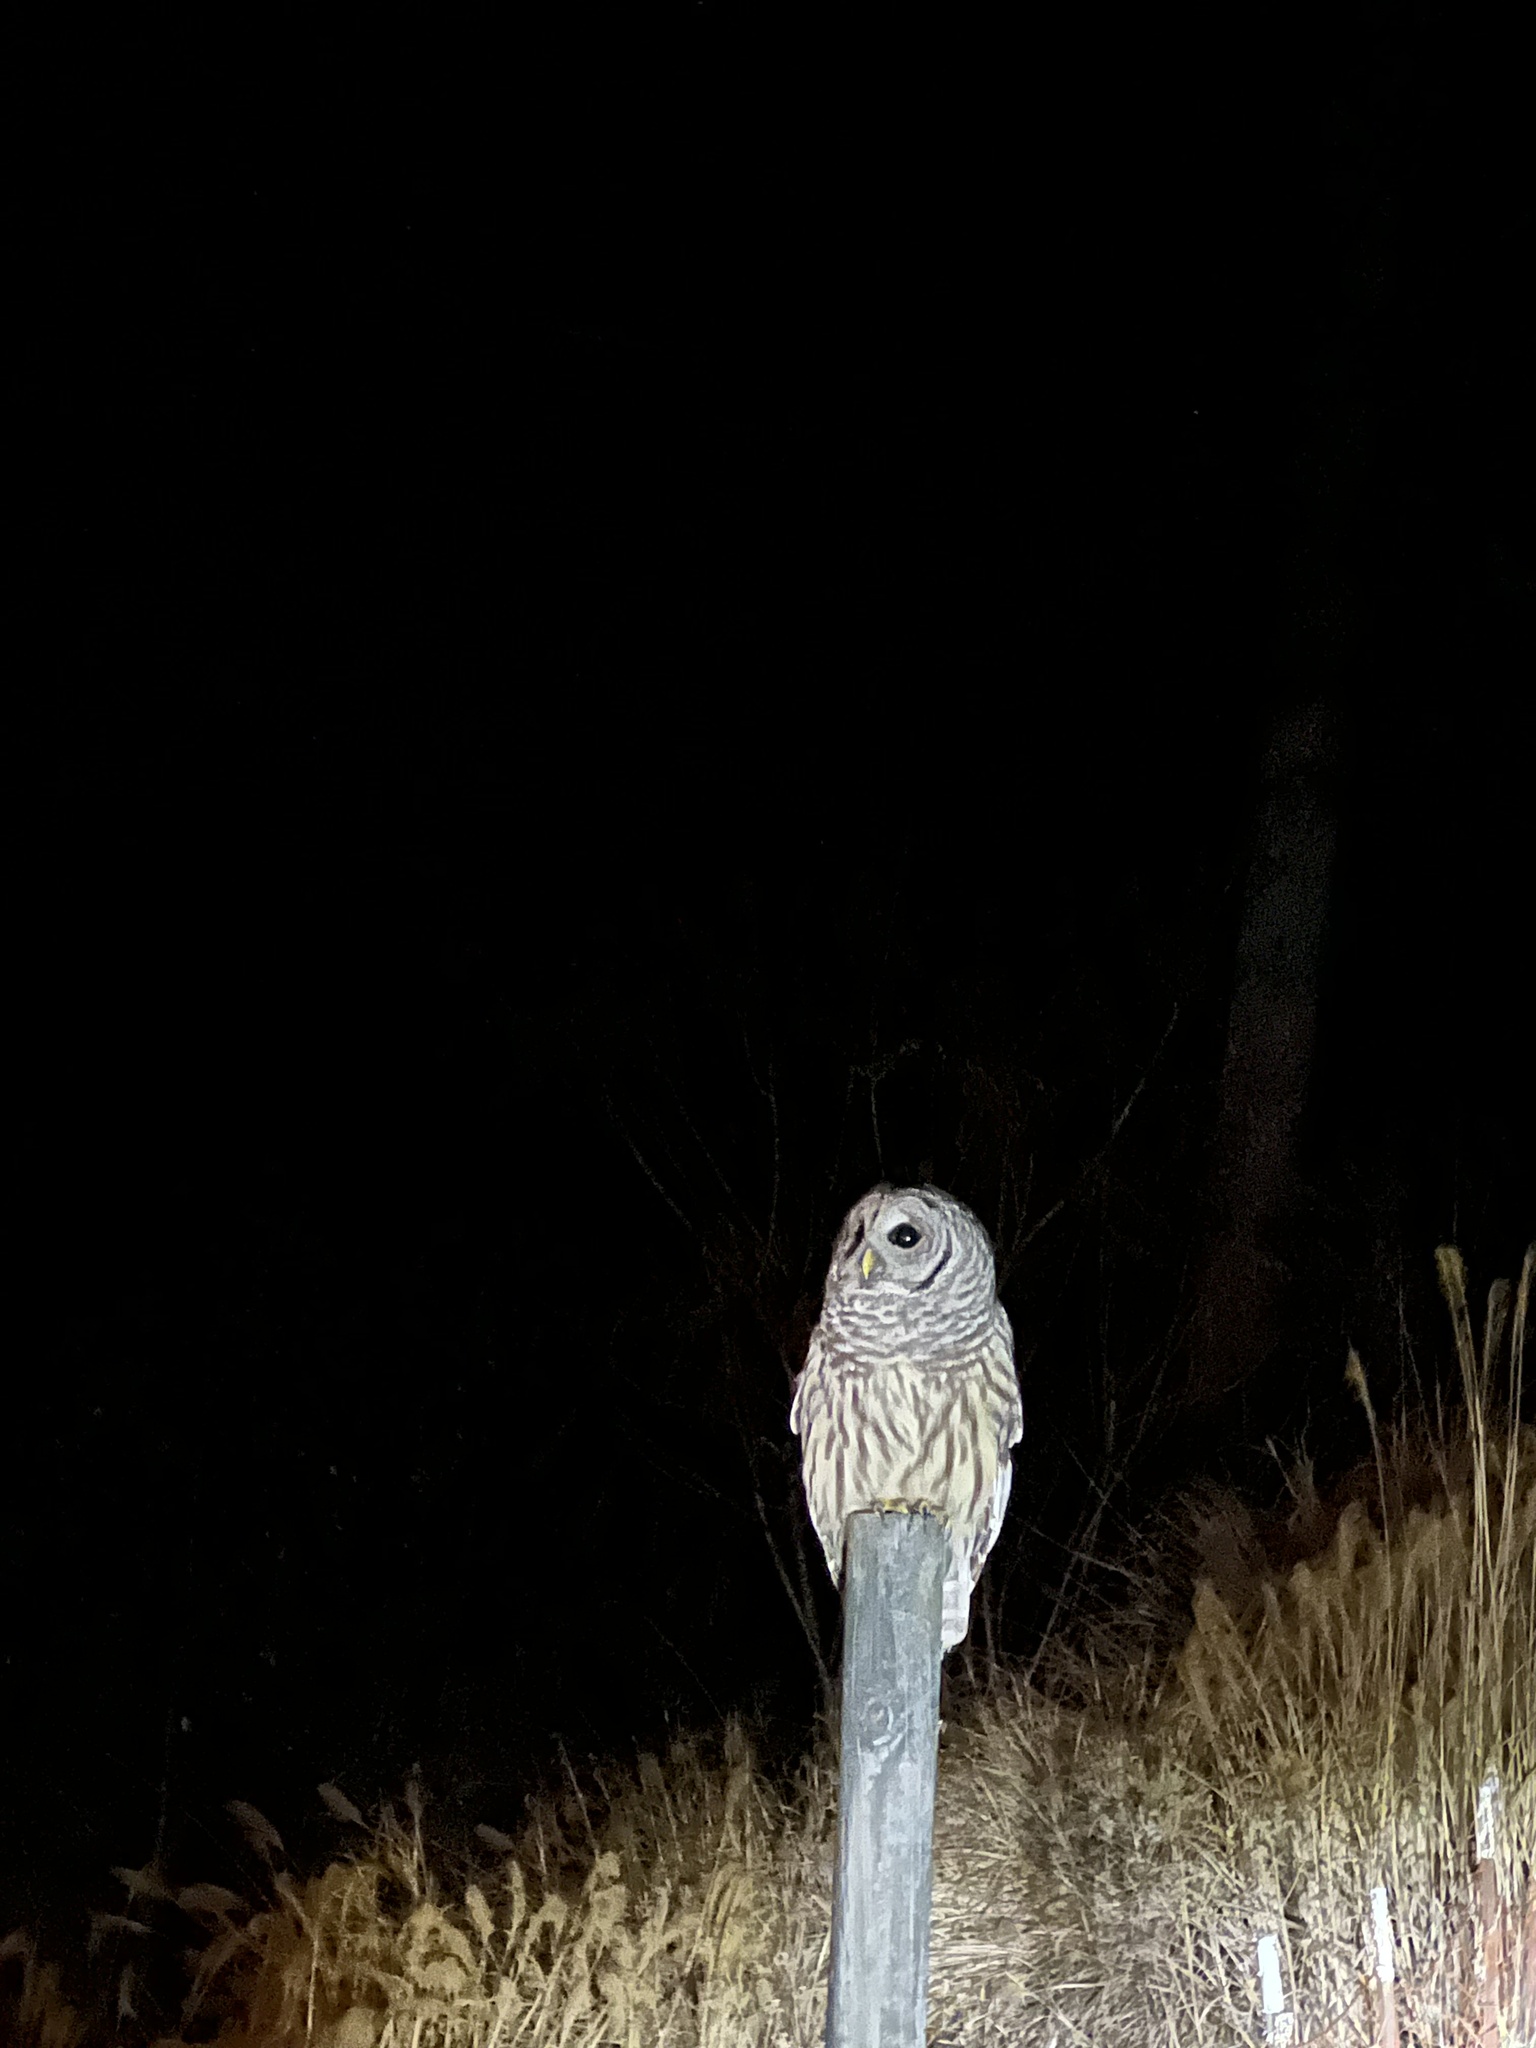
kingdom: Animalia
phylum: Chordata
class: Aves
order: Strigiformes
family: Strigidae
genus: Strix
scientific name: Strix varia
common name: Barred owl
